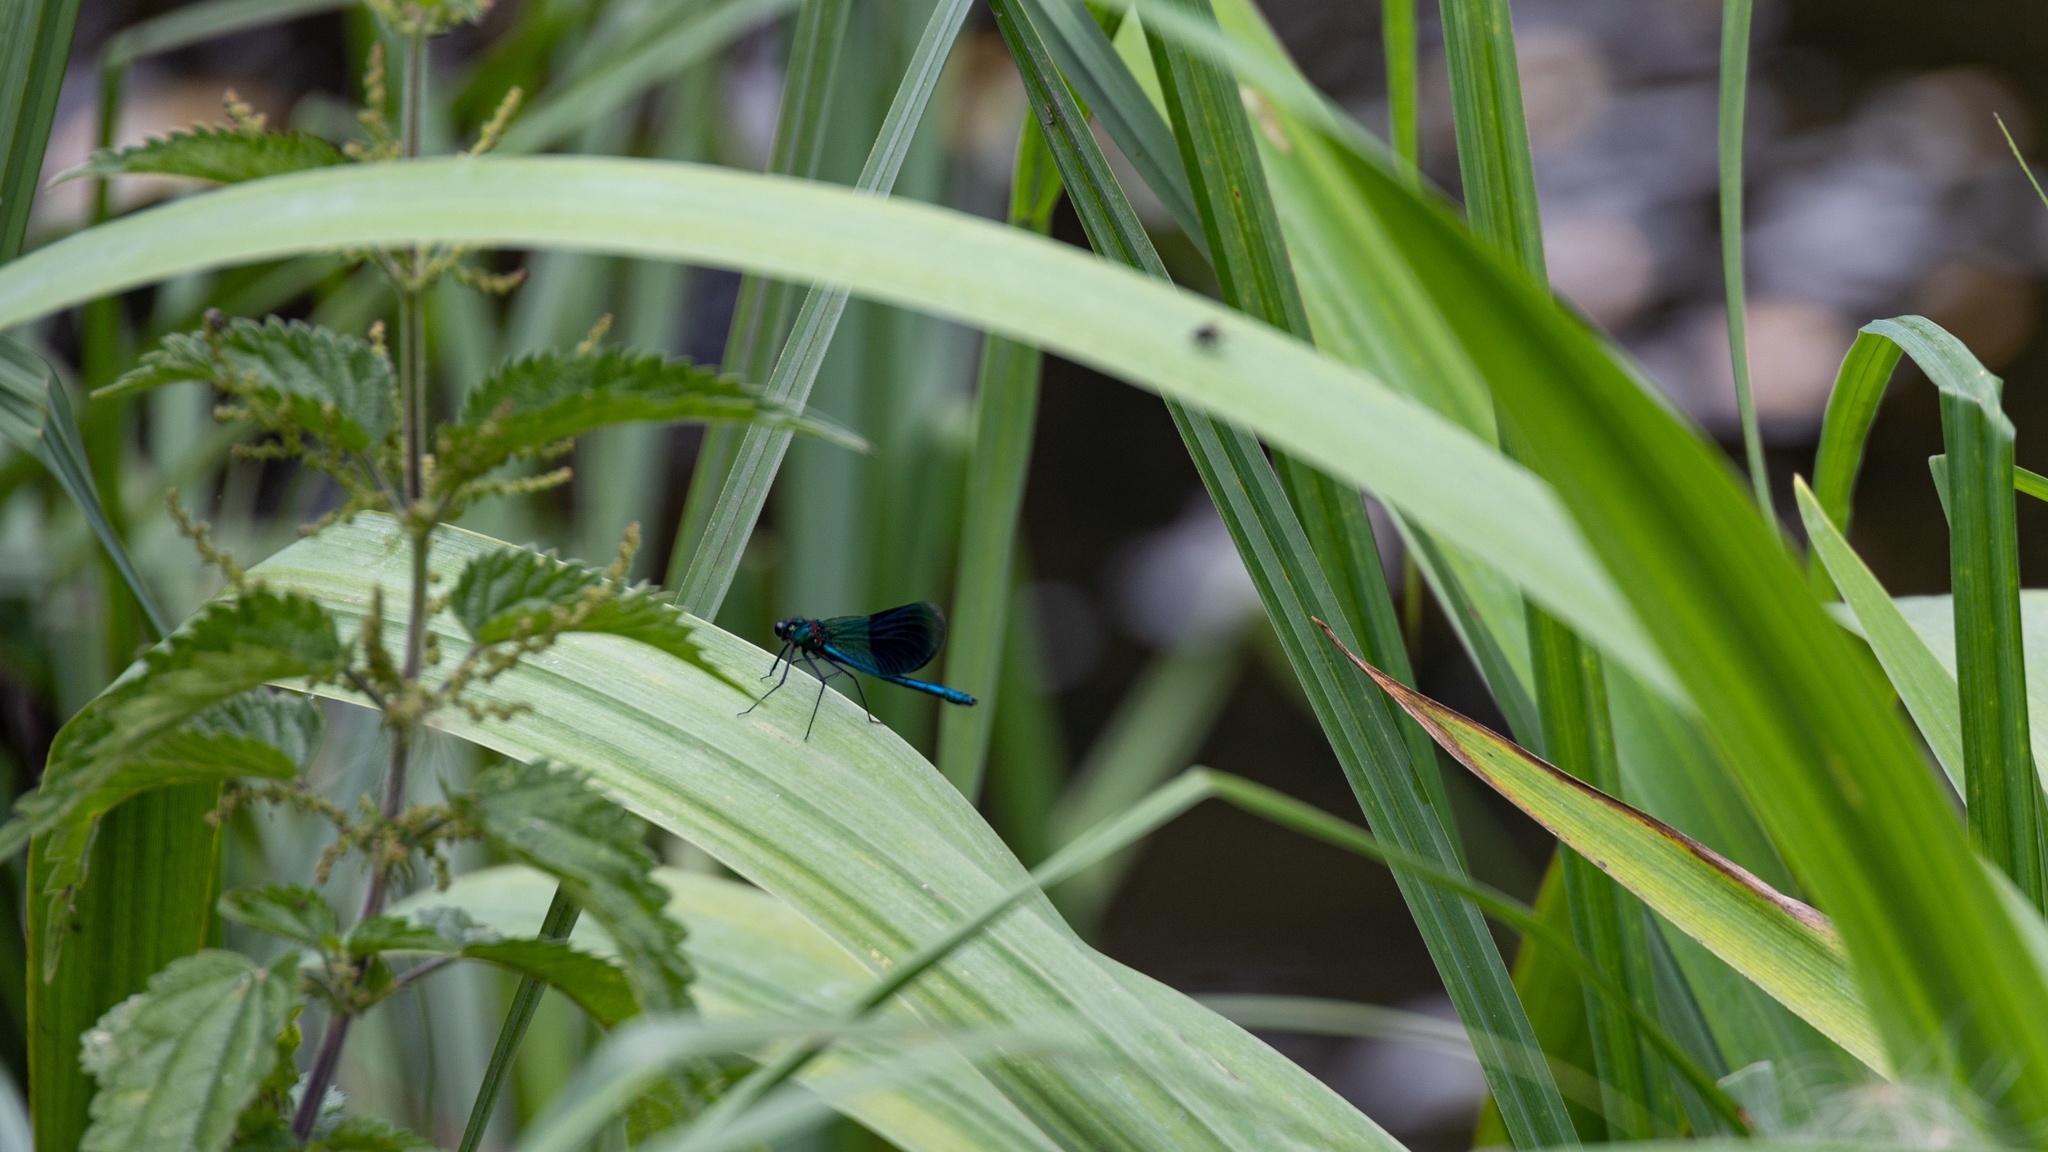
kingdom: Animalia
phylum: Arthropoda
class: Insecta
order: Odonata
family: Calopterygidae
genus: Calopteryx
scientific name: Calopteryx splendens
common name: Banded demoiselle
